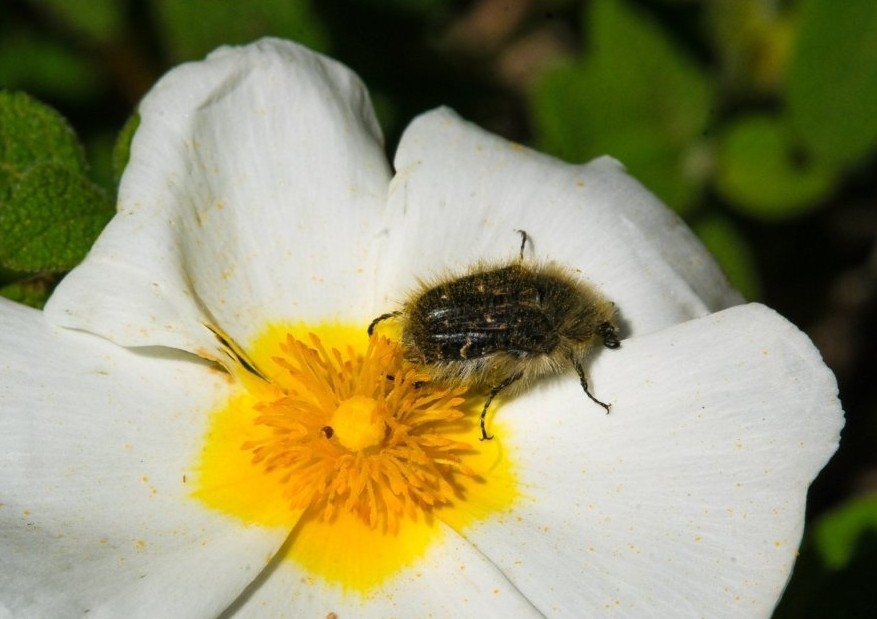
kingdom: Animalia
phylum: Arthropoda
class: Insecta
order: Coleoptera
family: Scarabaeidae
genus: Tropinota
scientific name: Tropinota squalida
